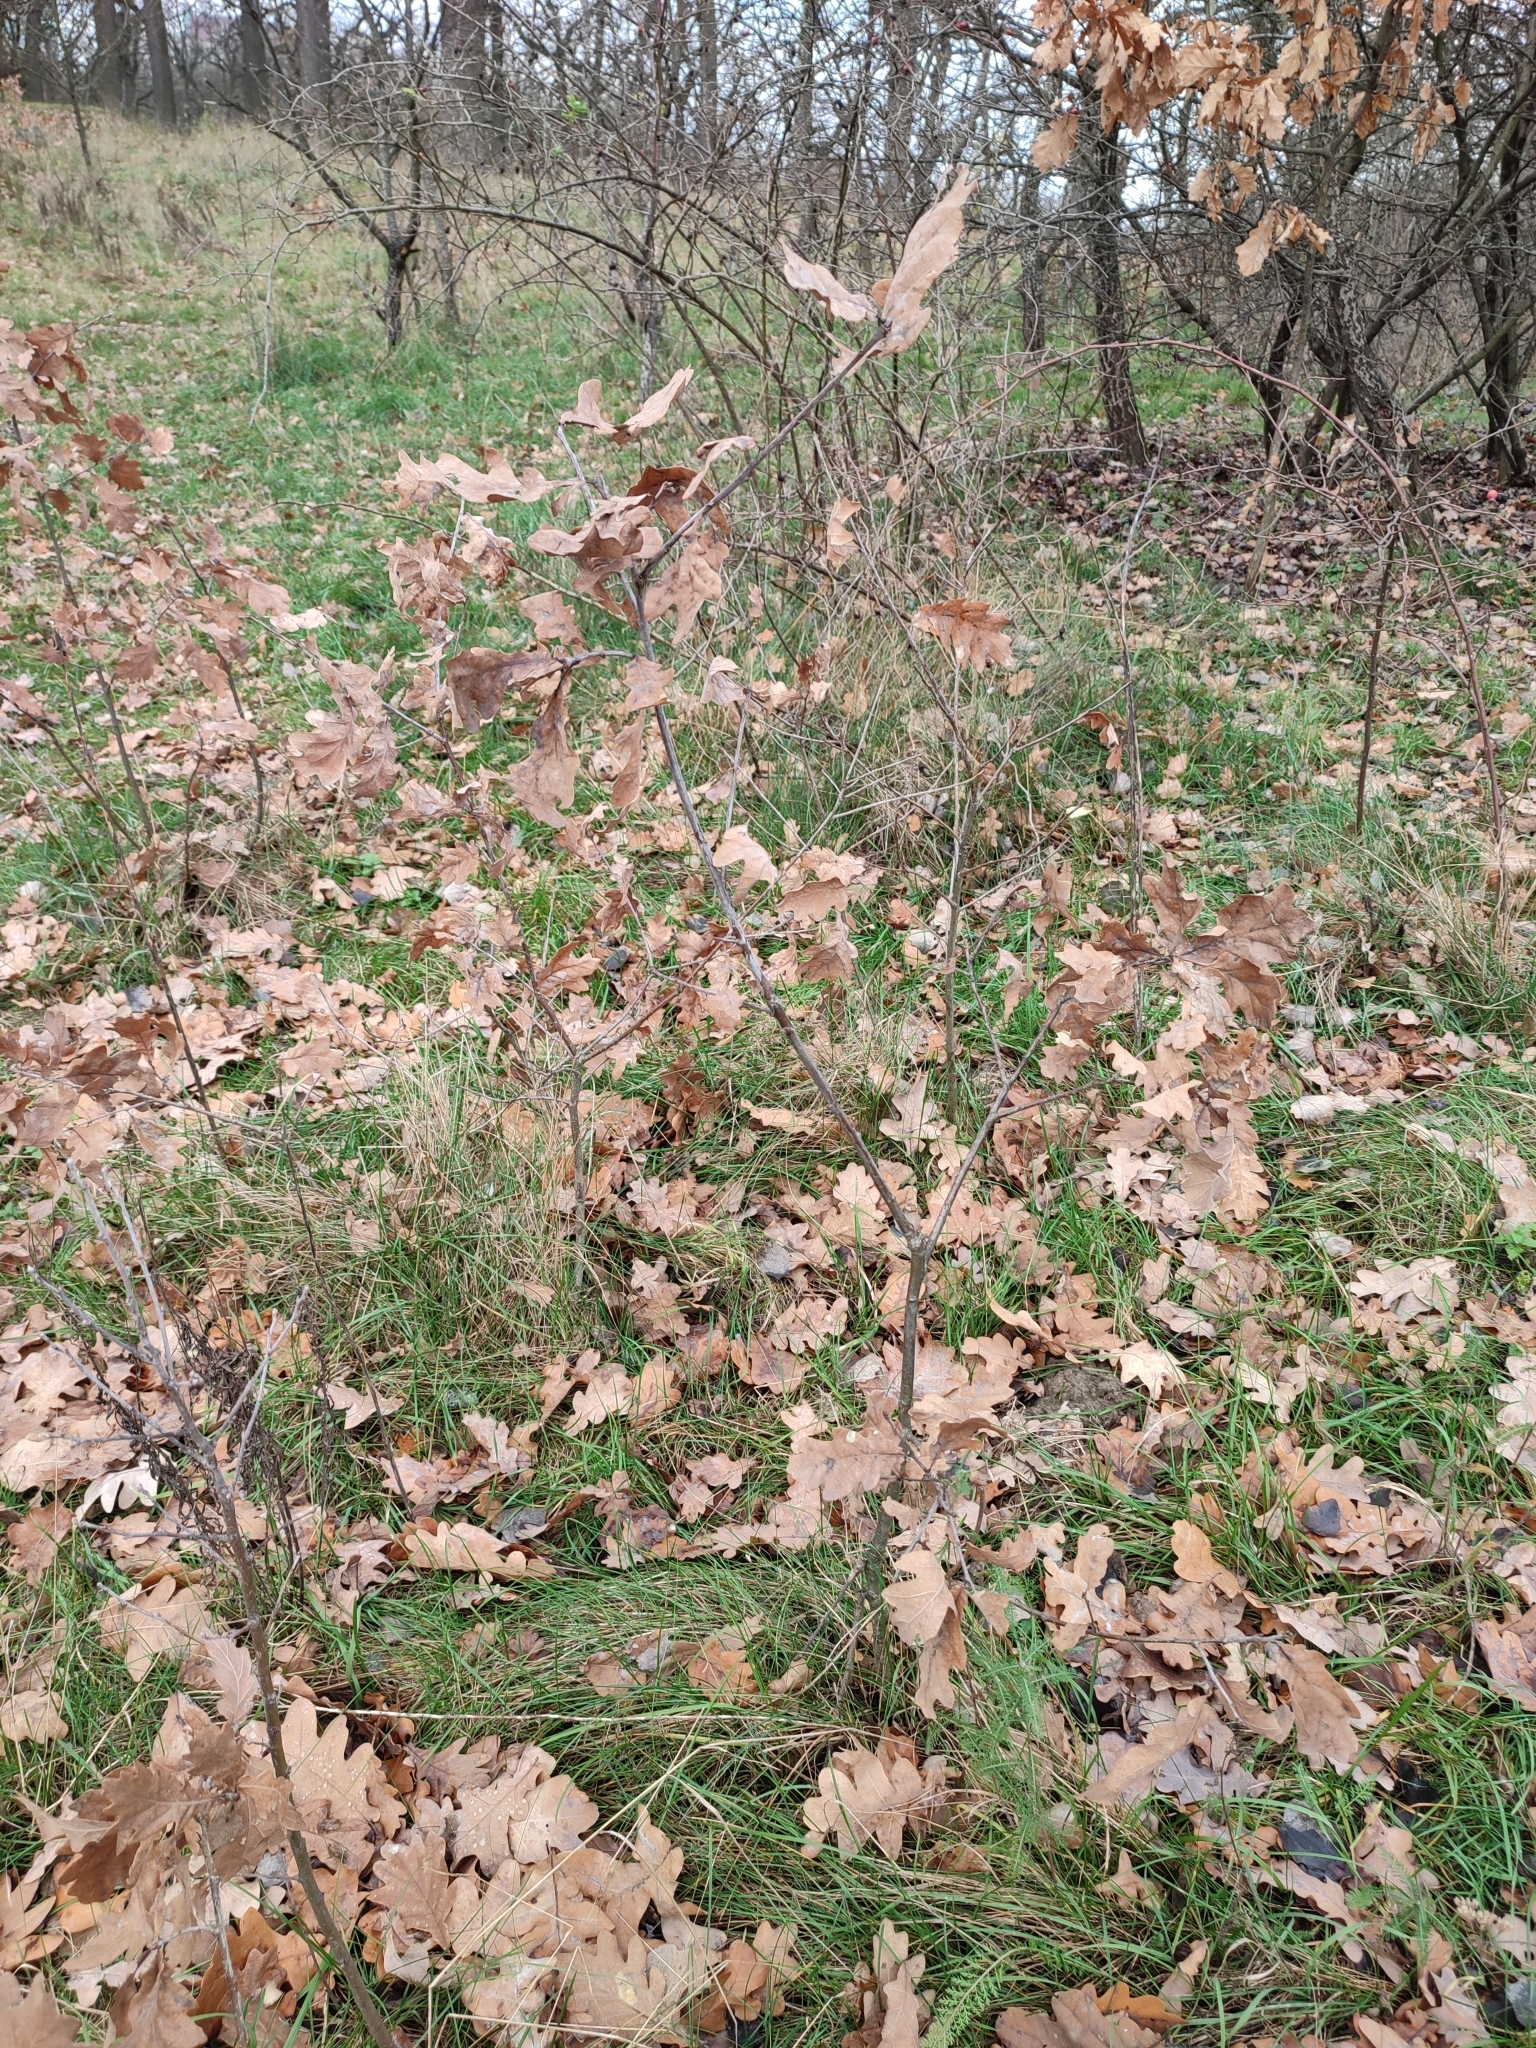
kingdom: Plantae
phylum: Tracheophyta
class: Magnoliopsida
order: Fagales
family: Fagaceae
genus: Quercus
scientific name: Quercus robur
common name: Pedunculate oak
